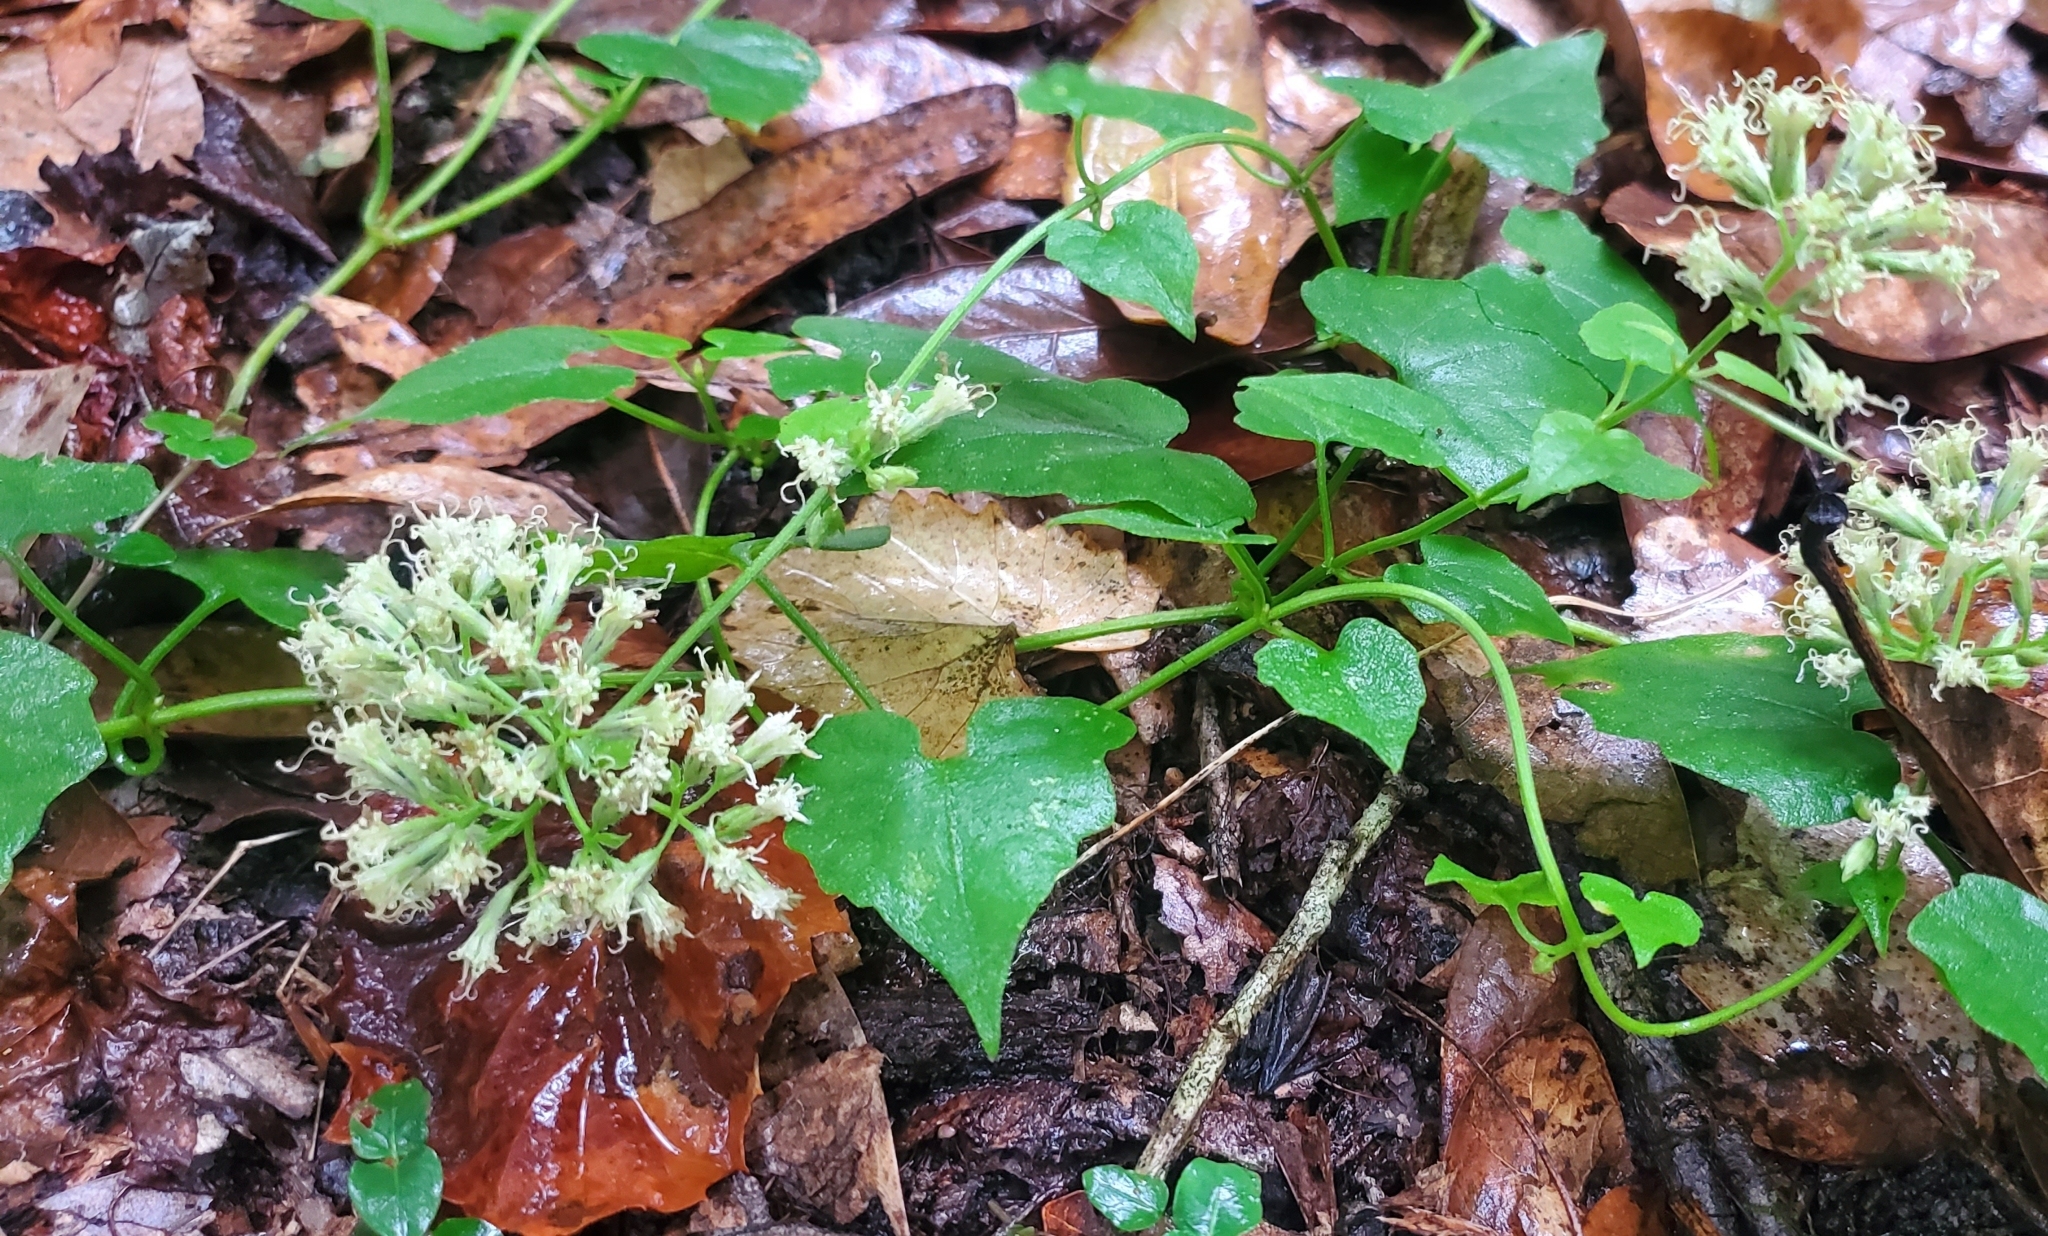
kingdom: Plantae
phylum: Tracheophyta
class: Magnoliopsida
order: Asterales
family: Asteraceae
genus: Mikania
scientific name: Mikania scandens
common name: Climbing hempvine
